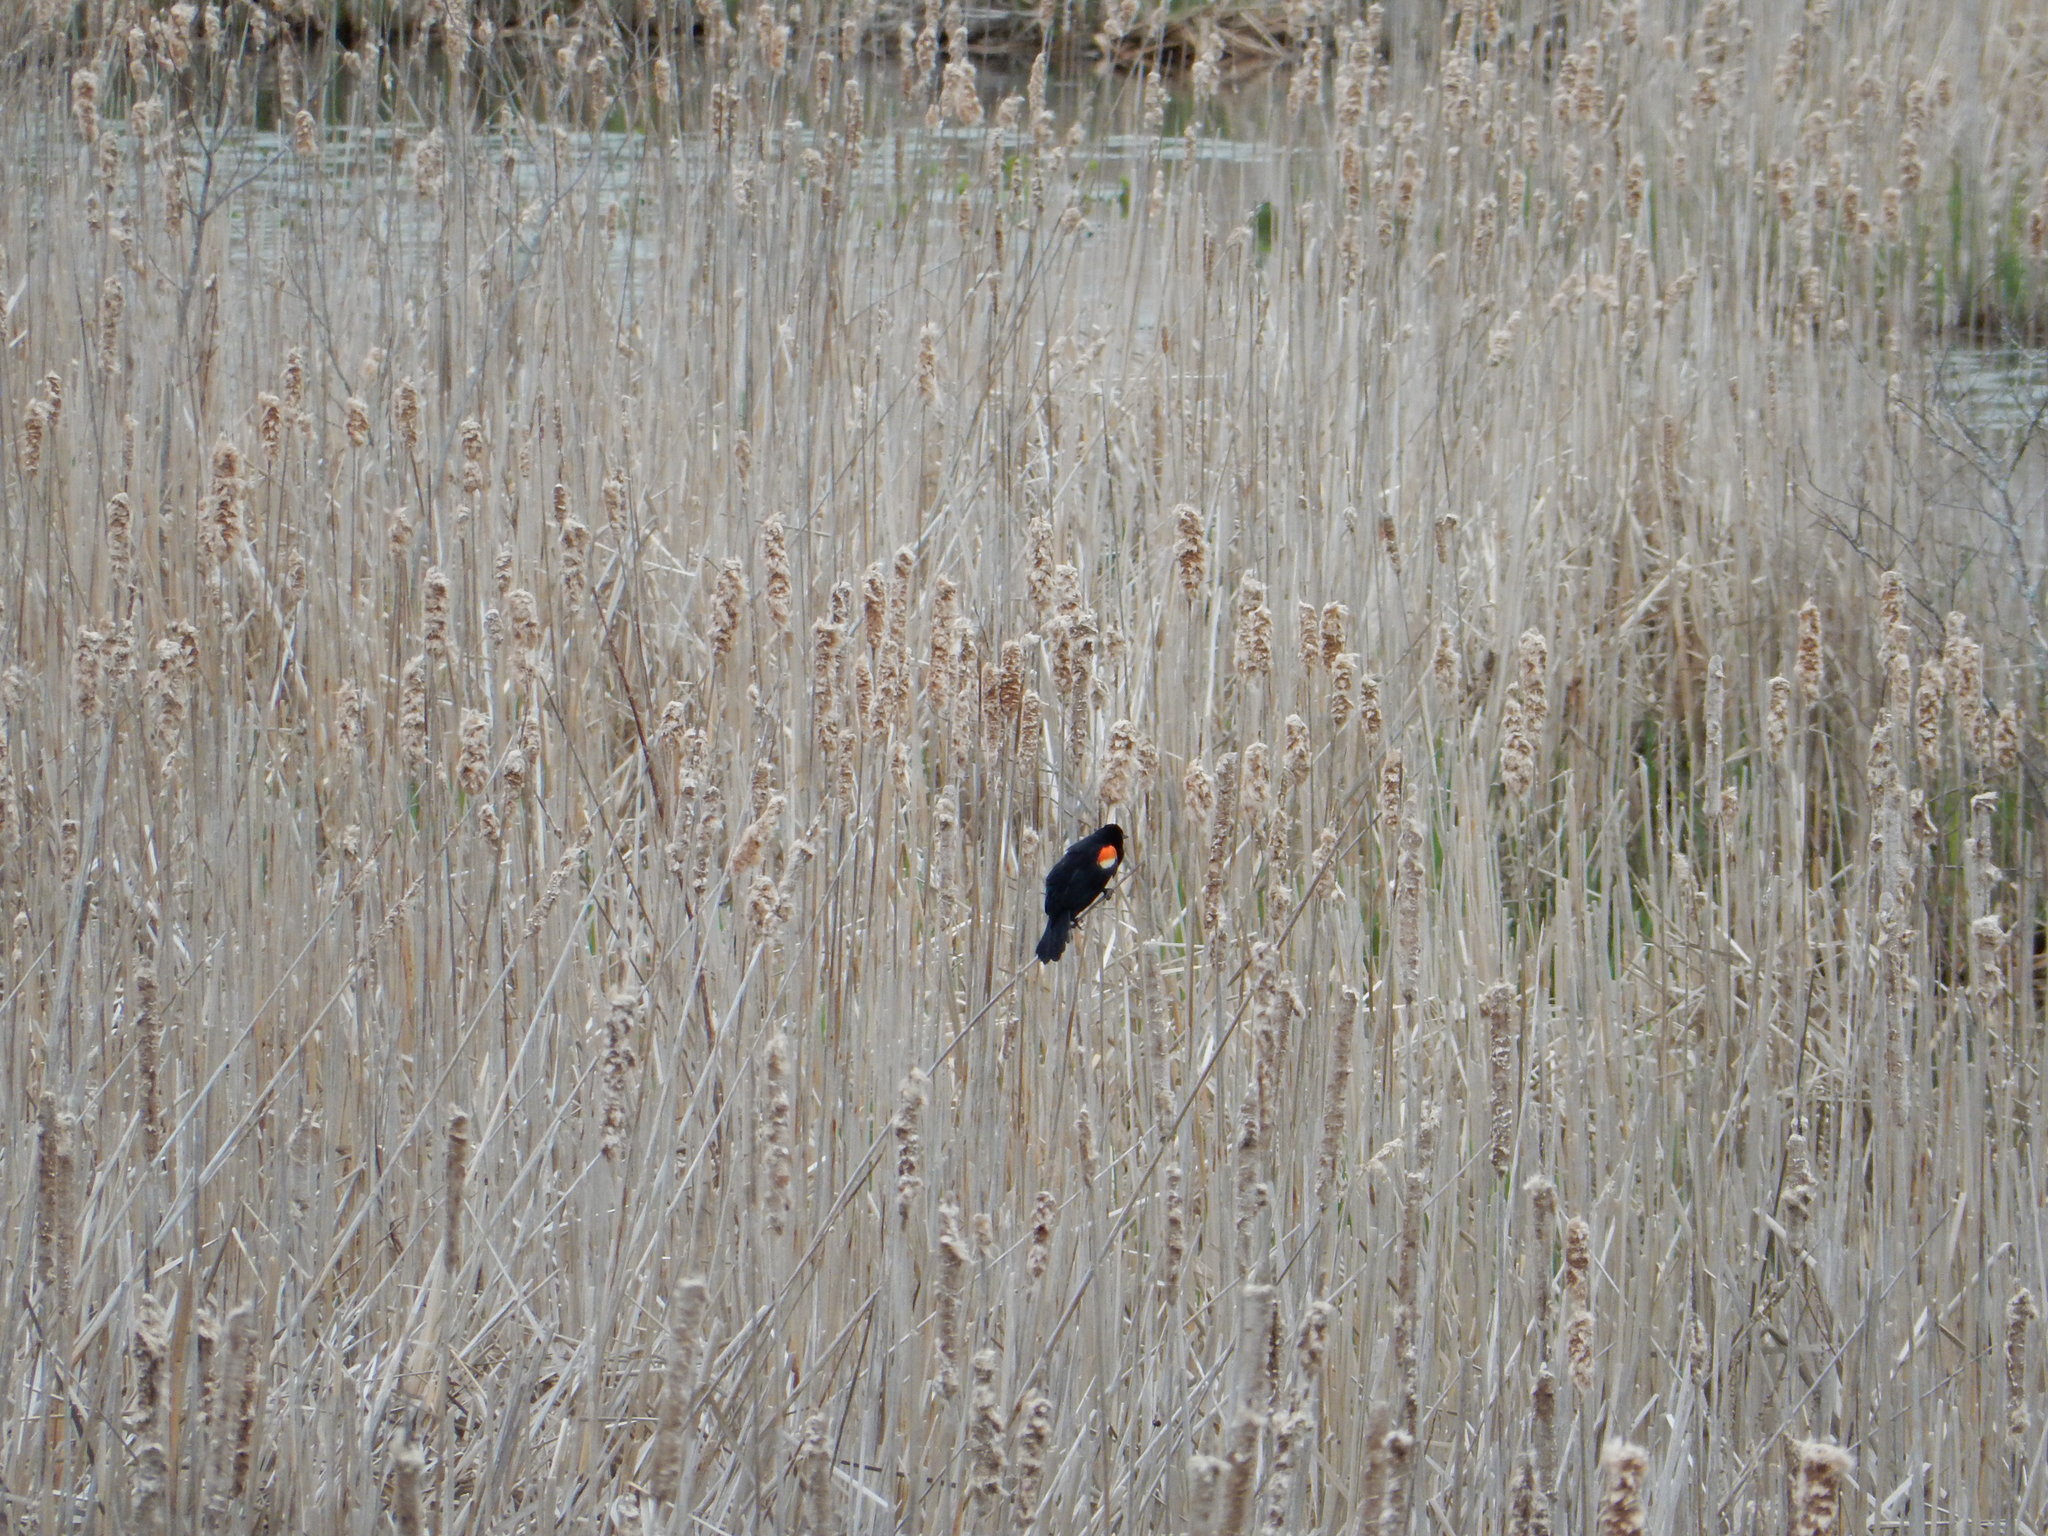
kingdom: Animalia
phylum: Chordata
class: Aves
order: Passeriformes
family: Icteridae
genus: Agelaius
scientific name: Agelaius phoeniceus
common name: Red-winged blackbird
